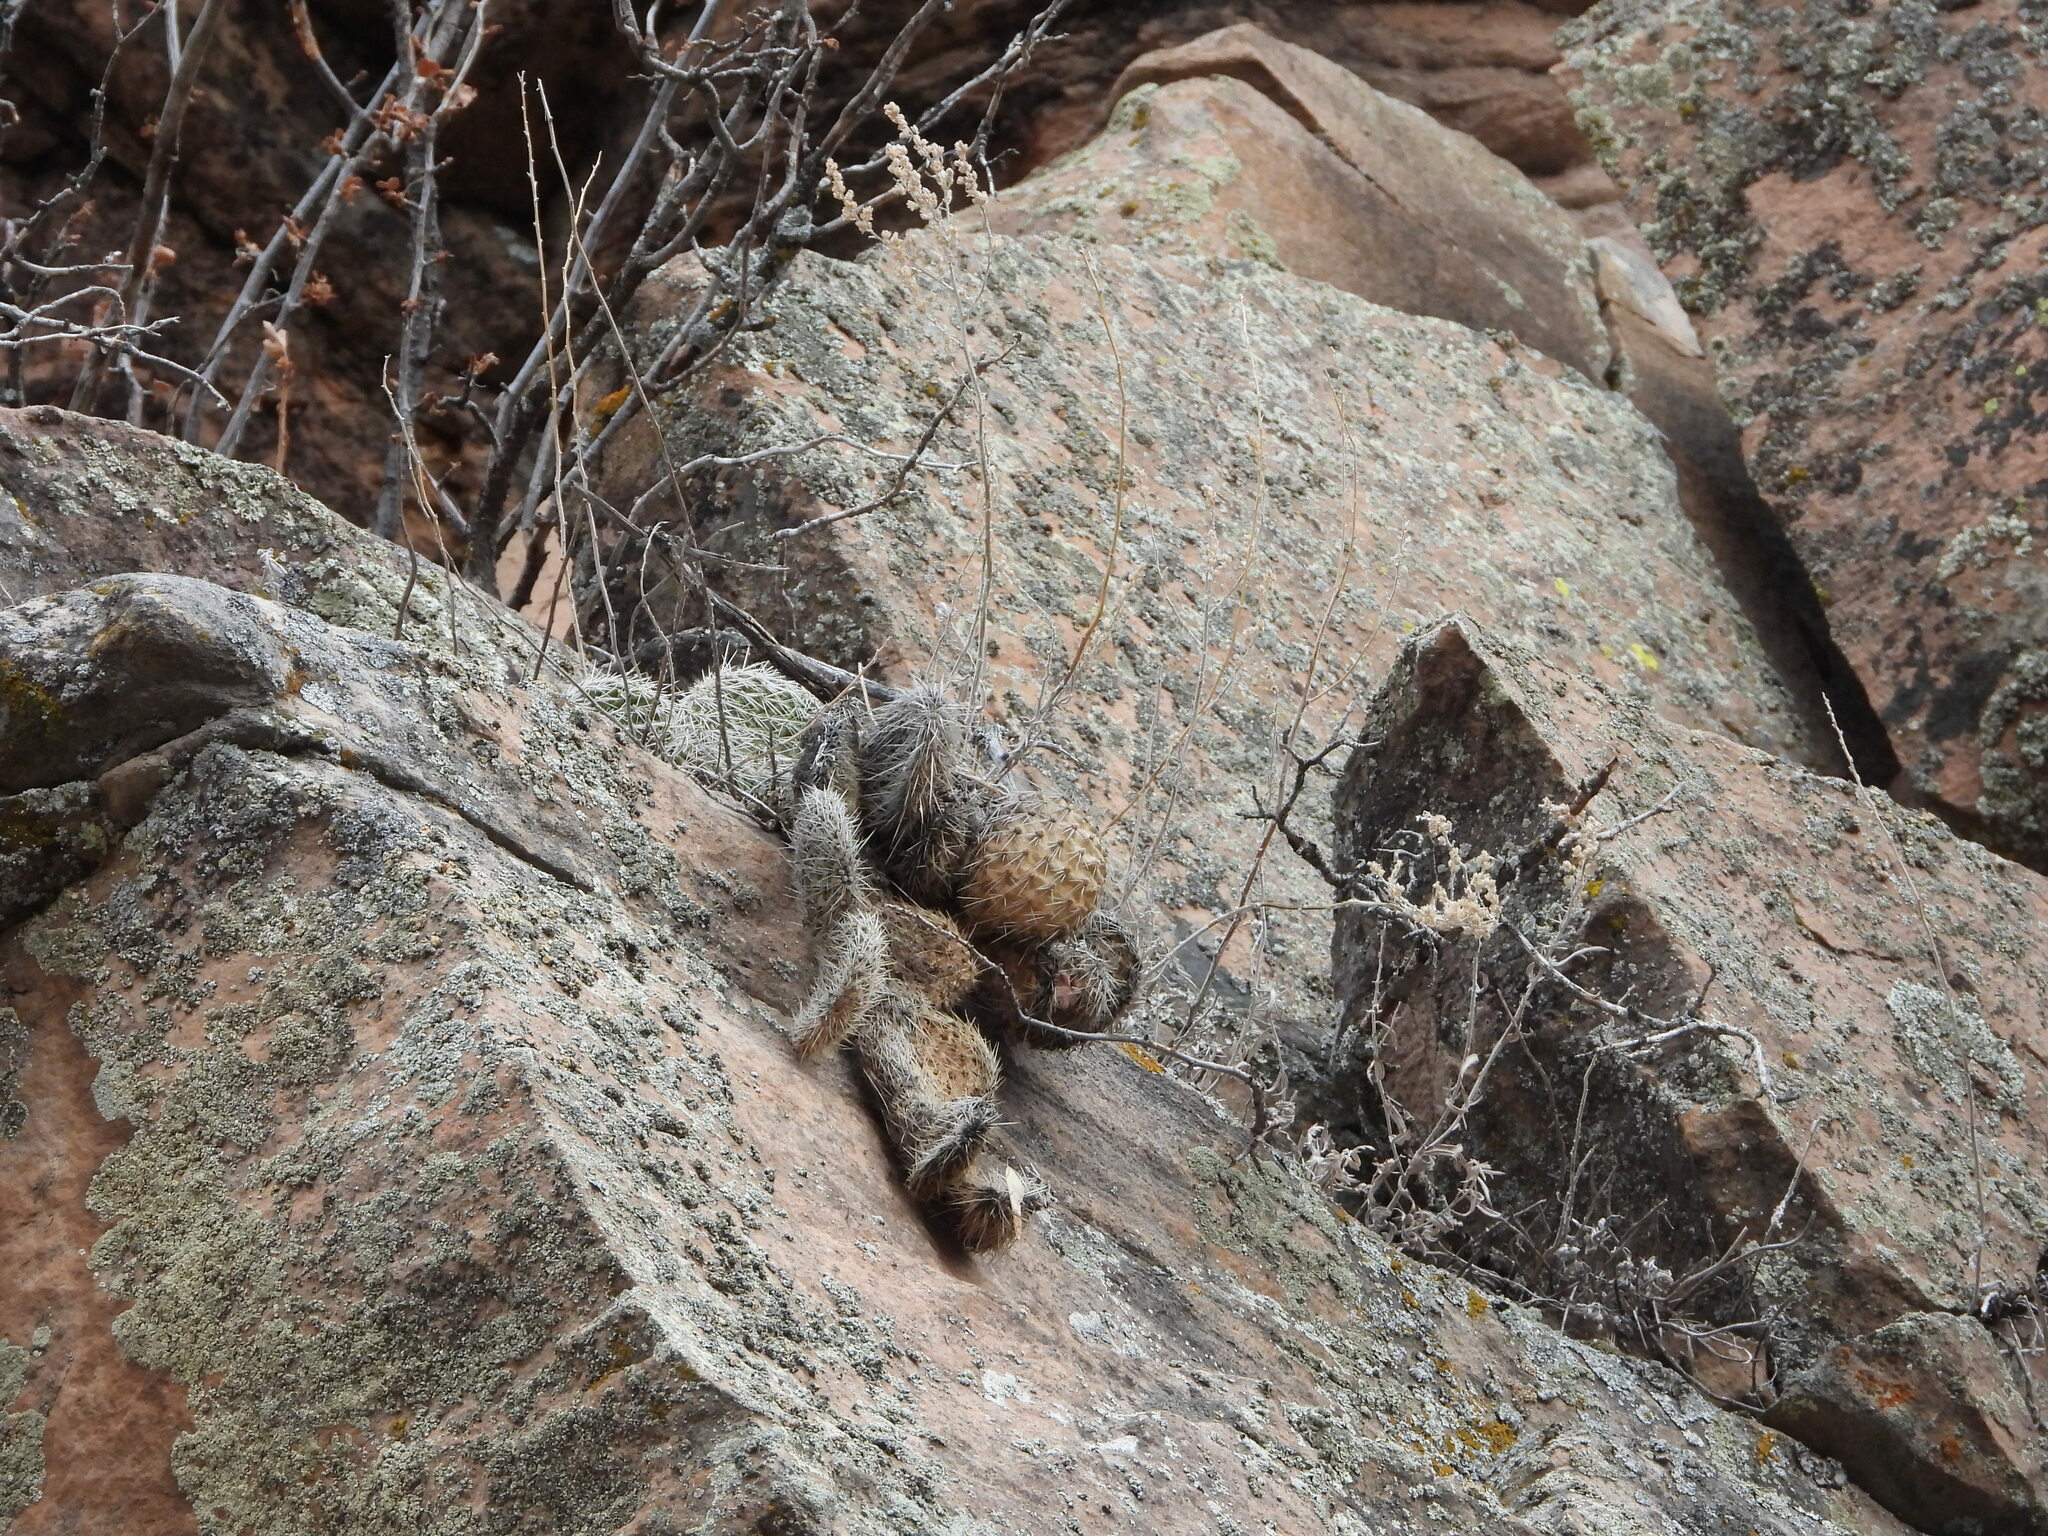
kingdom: Plantae
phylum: Tracheophyta
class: Magnoliopsida
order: Caryophyllales
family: Cactaceae
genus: Opuntia
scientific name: Opuntia polyacantha
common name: Plains prickly-pear
